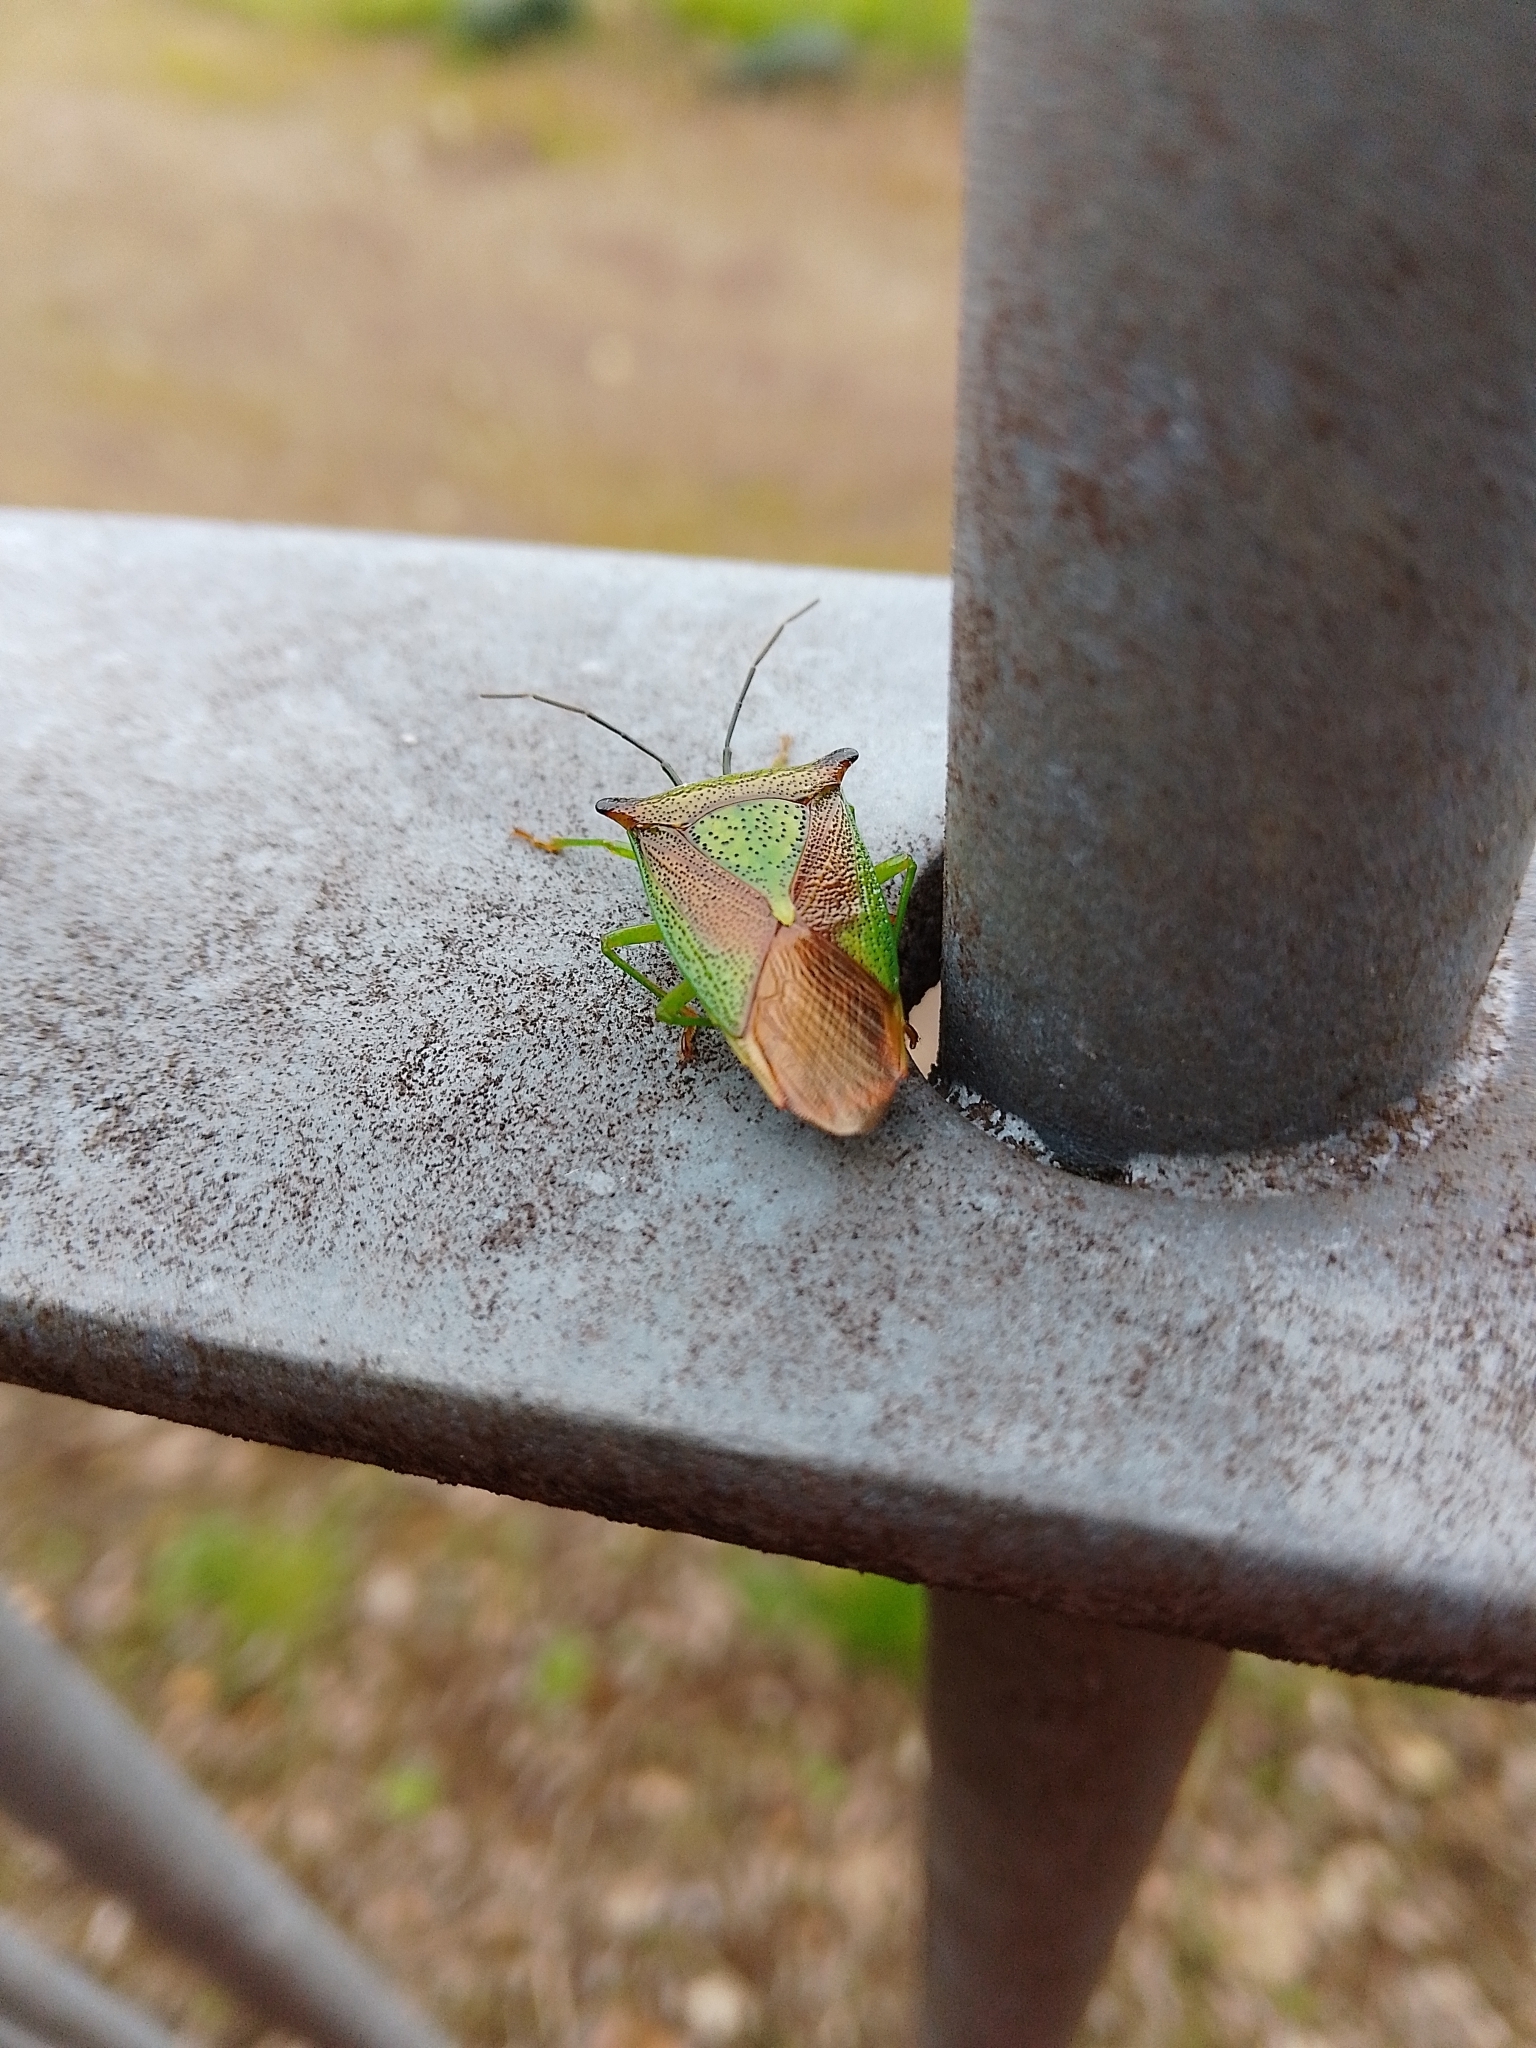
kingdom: Animalia
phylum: Arthropoda
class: Insecta
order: Hemiptera
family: Acanthosomatidae
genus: Acanthosoma
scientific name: Acanthosoma haemorrhoidale
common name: Hawthorn shieldbug
